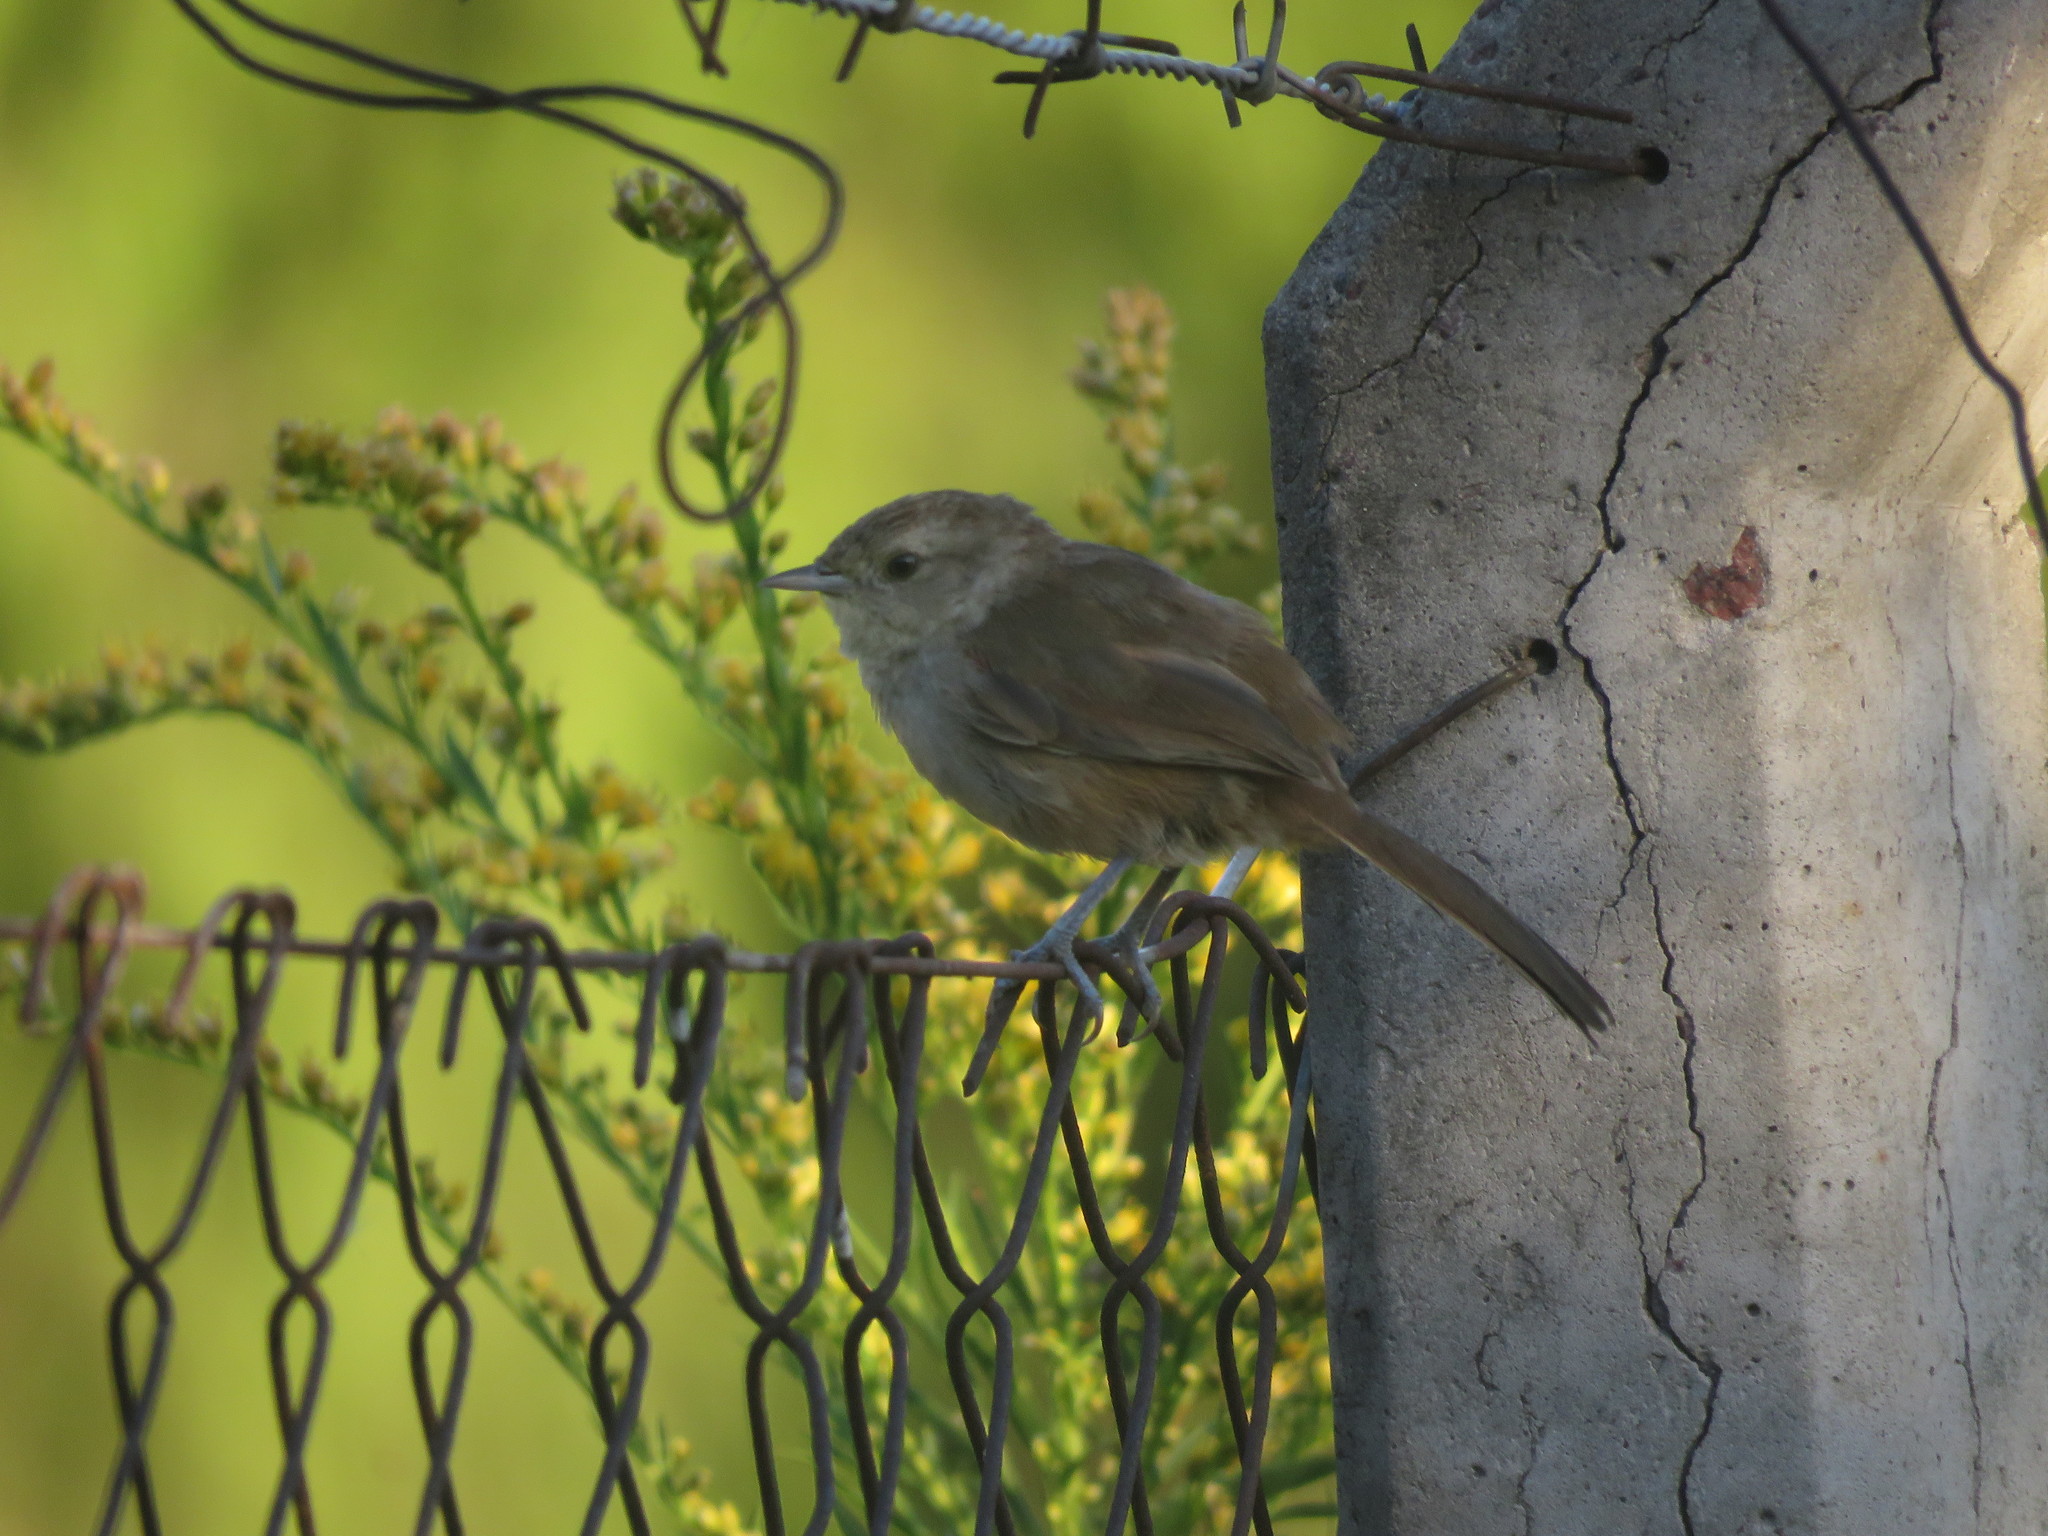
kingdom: Animalia
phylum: Chordata
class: Aves
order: Passeriformes
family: Furnariidae
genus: Phacellodomus
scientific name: Phacellodomus sibilatrix
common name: Little thornbird
